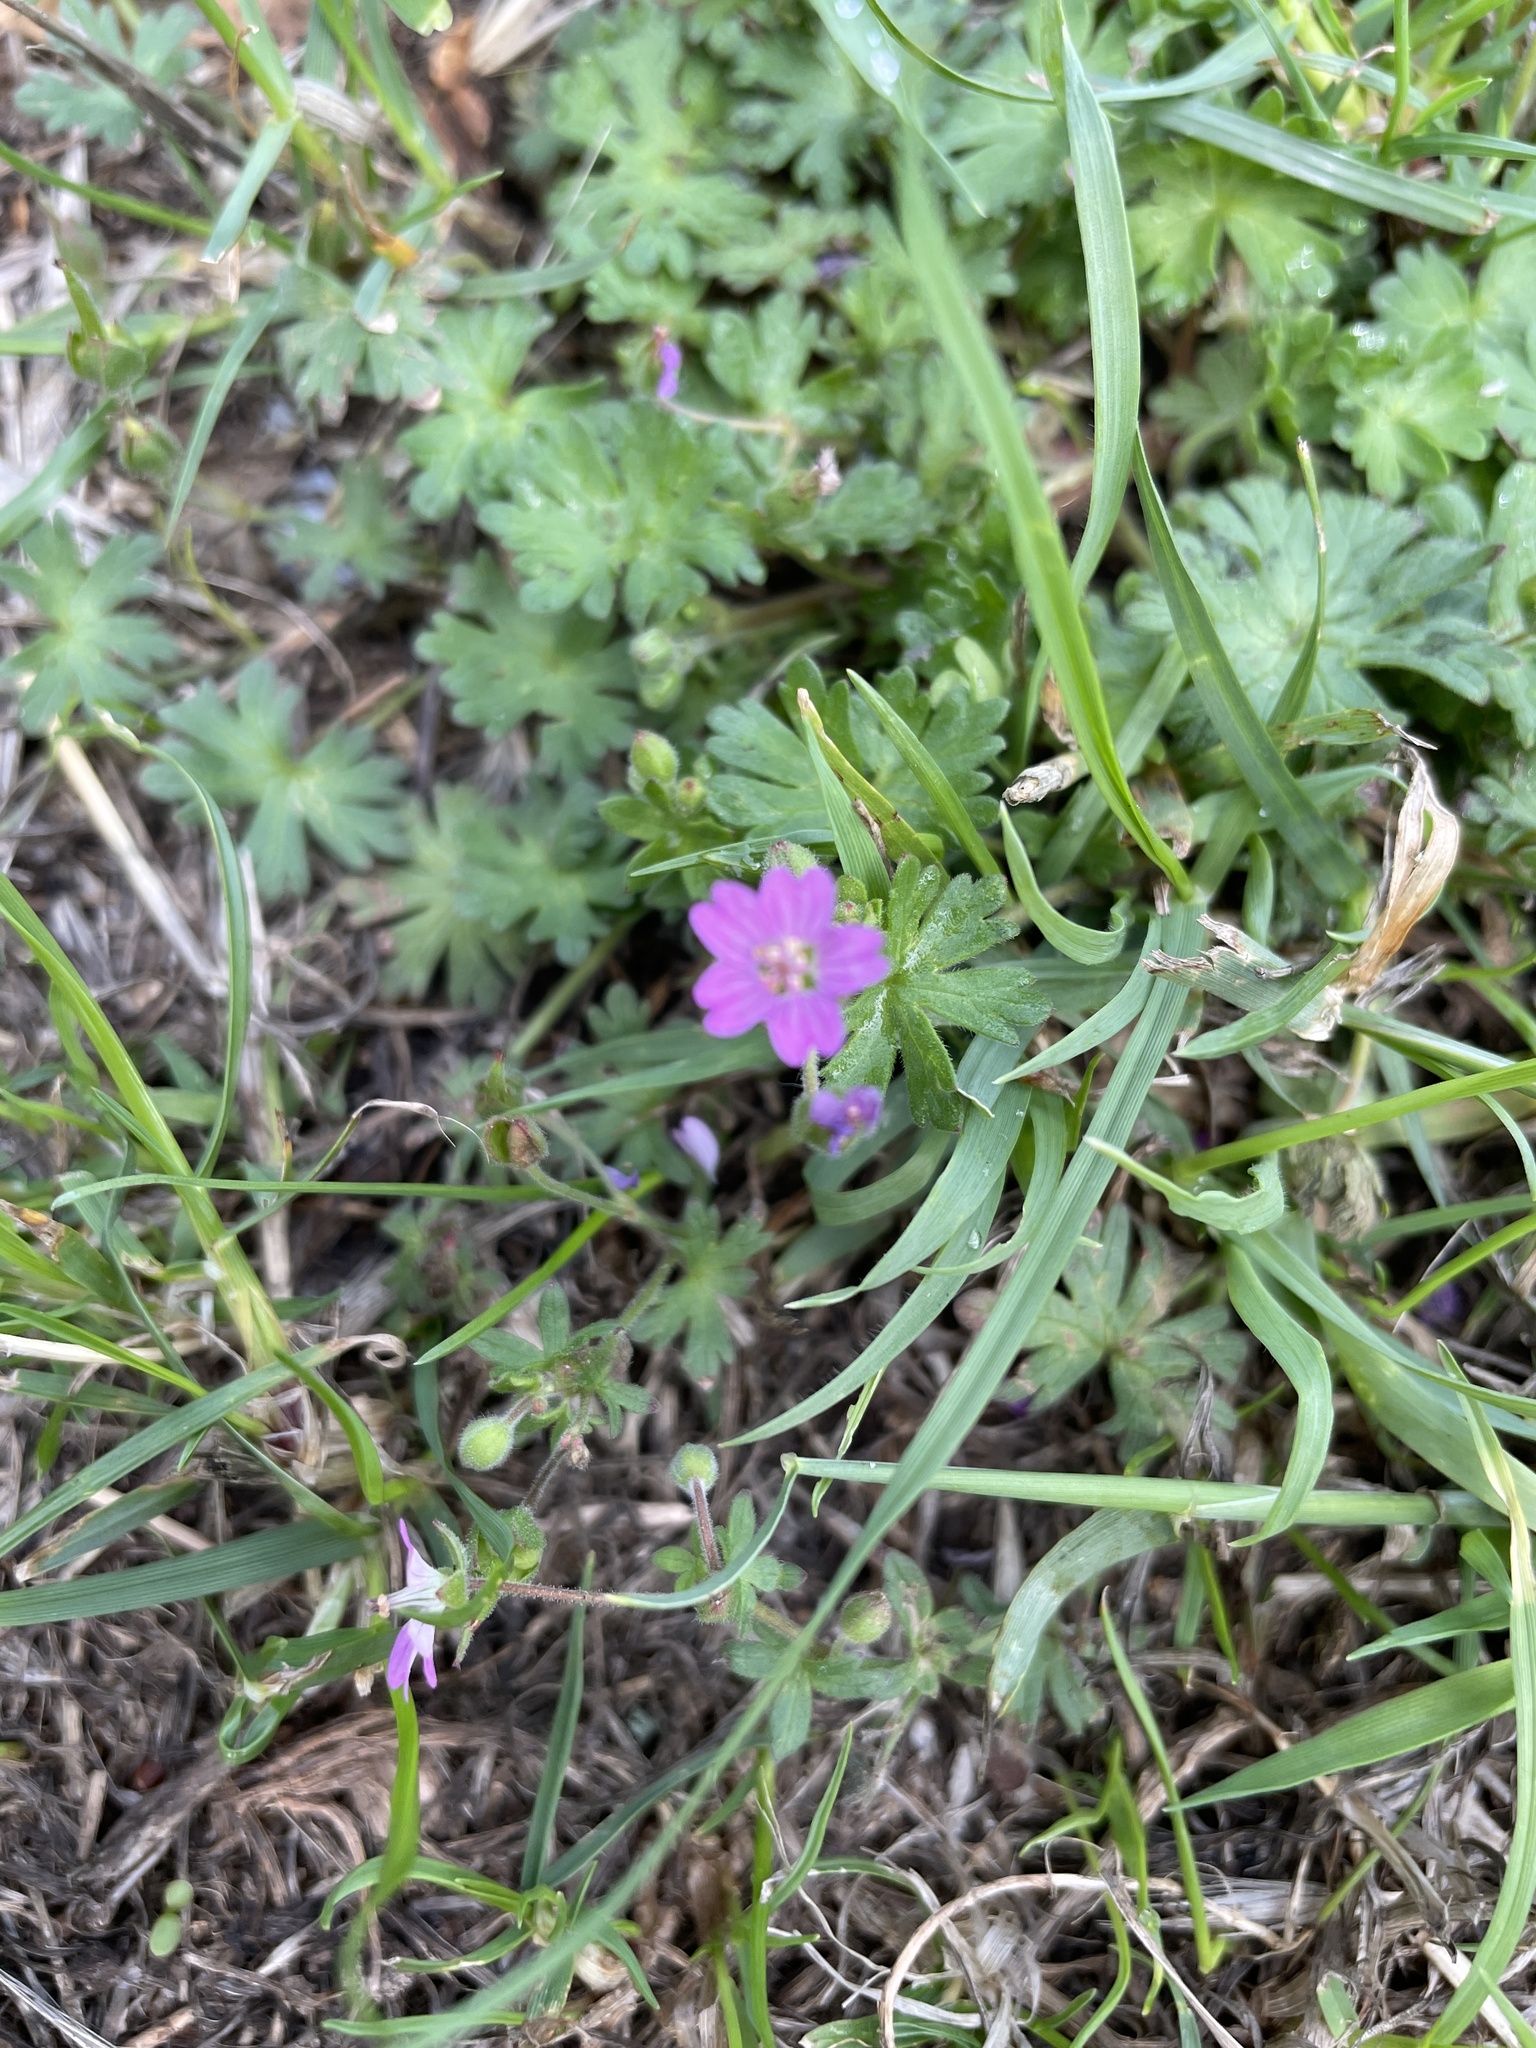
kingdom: Plantae
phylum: Tracheophyta
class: Magnoliopsida
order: Geraniales
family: Geraniaceae
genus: Geranium
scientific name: Geranium molle
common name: Dove's-foot crane's-bill
